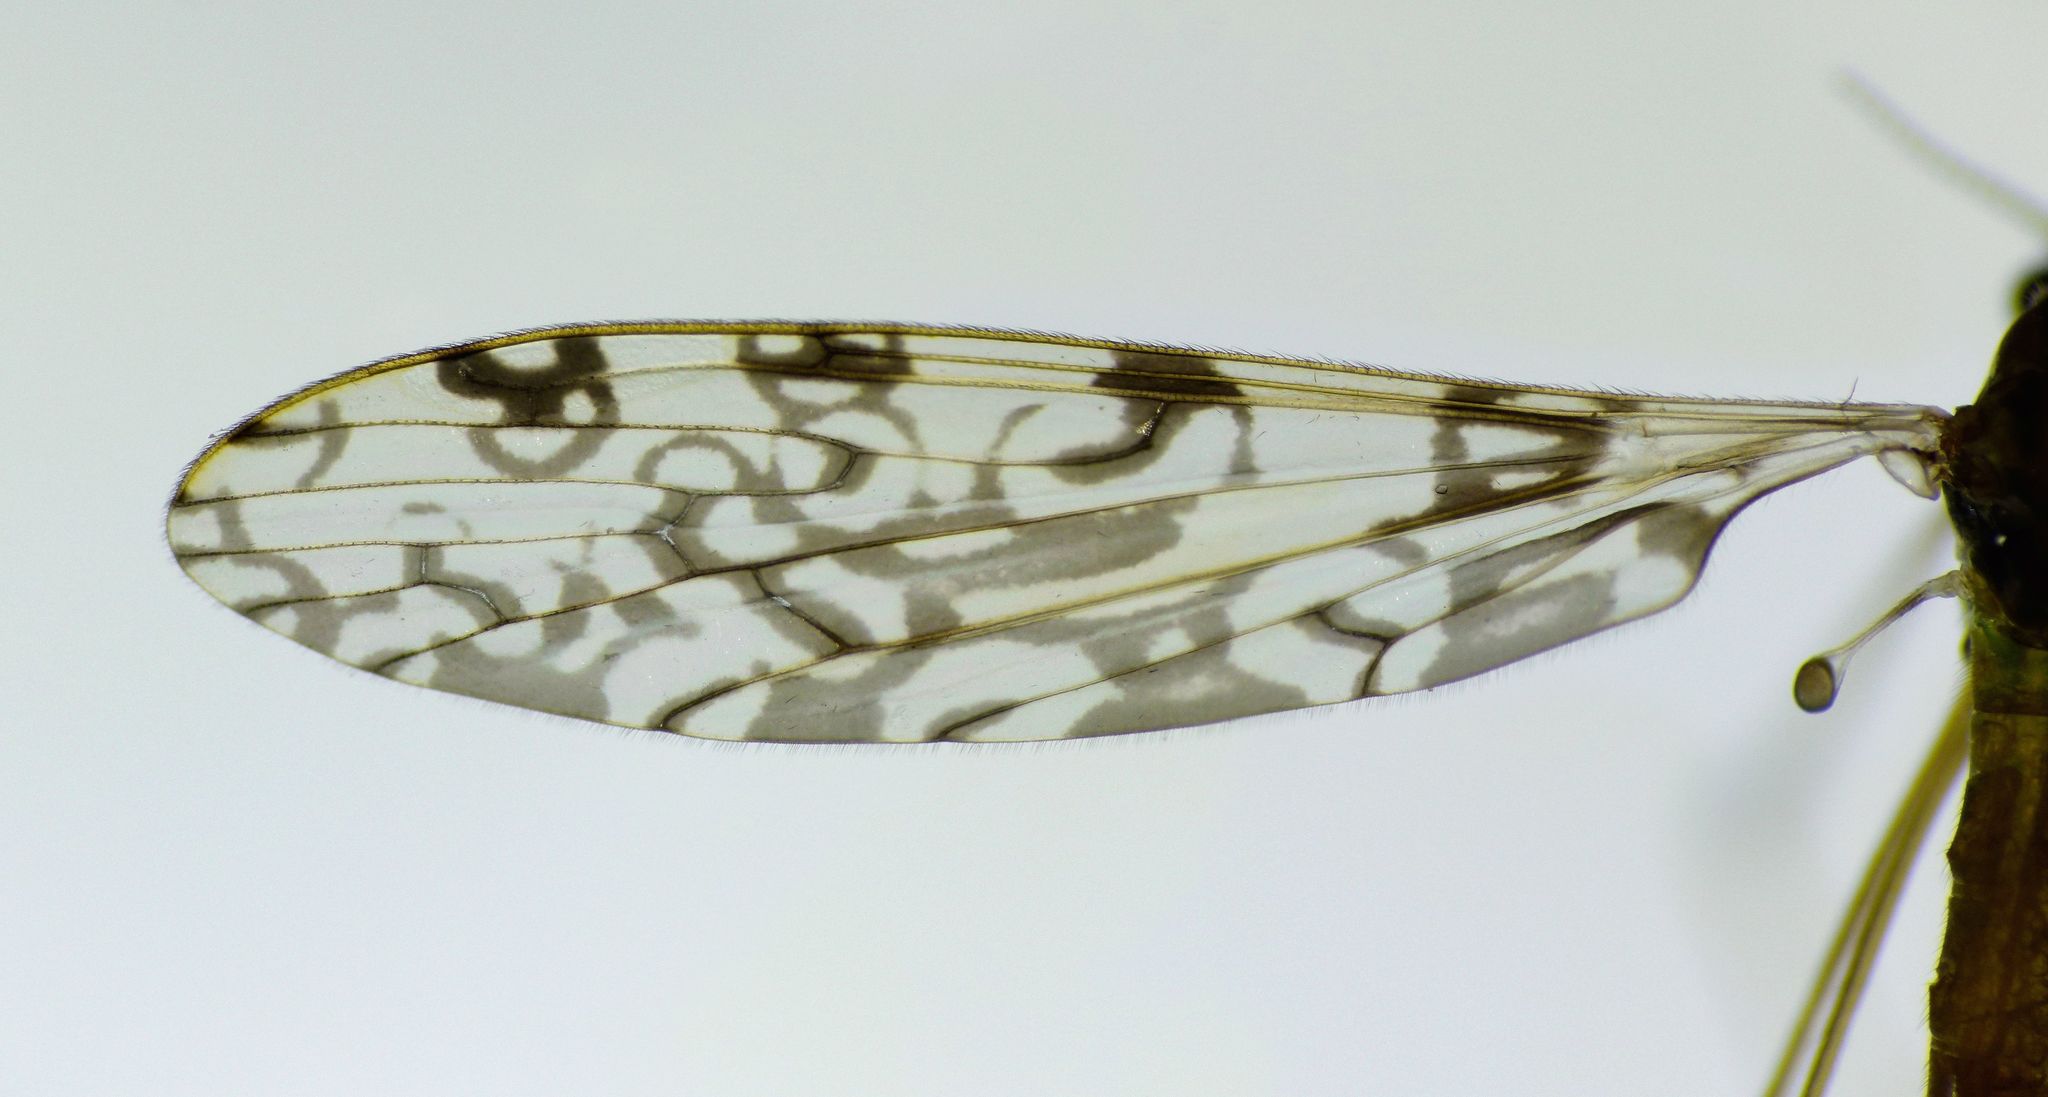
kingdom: Animalia
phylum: Arthropoda
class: Insecta
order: Diptera
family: Limoniidae
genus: Discobola
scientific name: Discobola haetara
